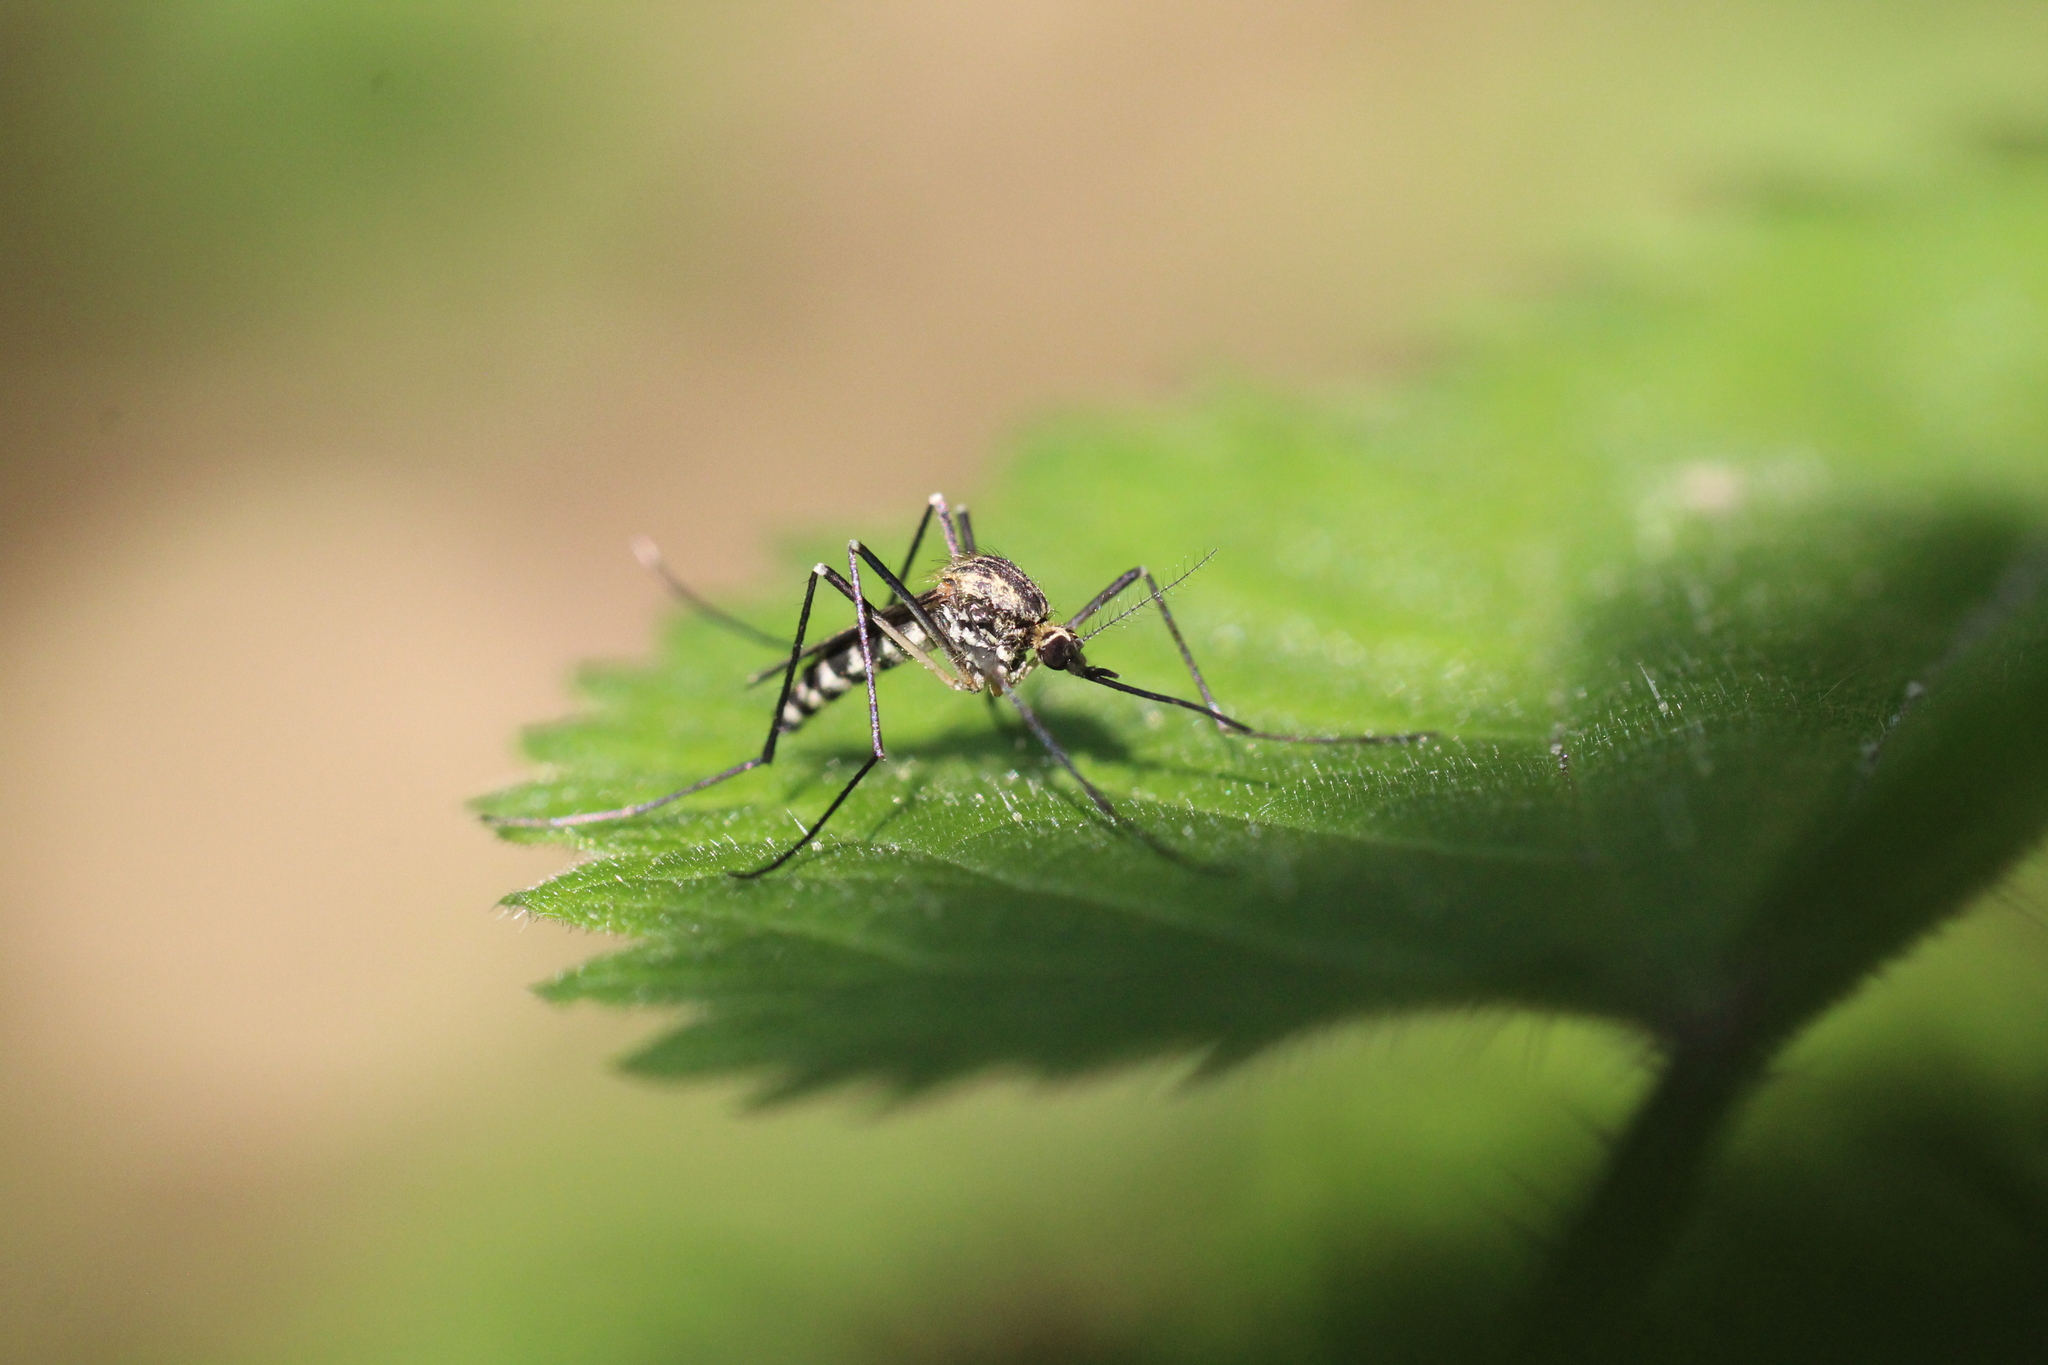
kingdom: Animalia
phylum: Arthropoda
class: Insecta
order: Diptera
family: Culicidae
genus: Aedes
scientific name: Aedes geniculatus
